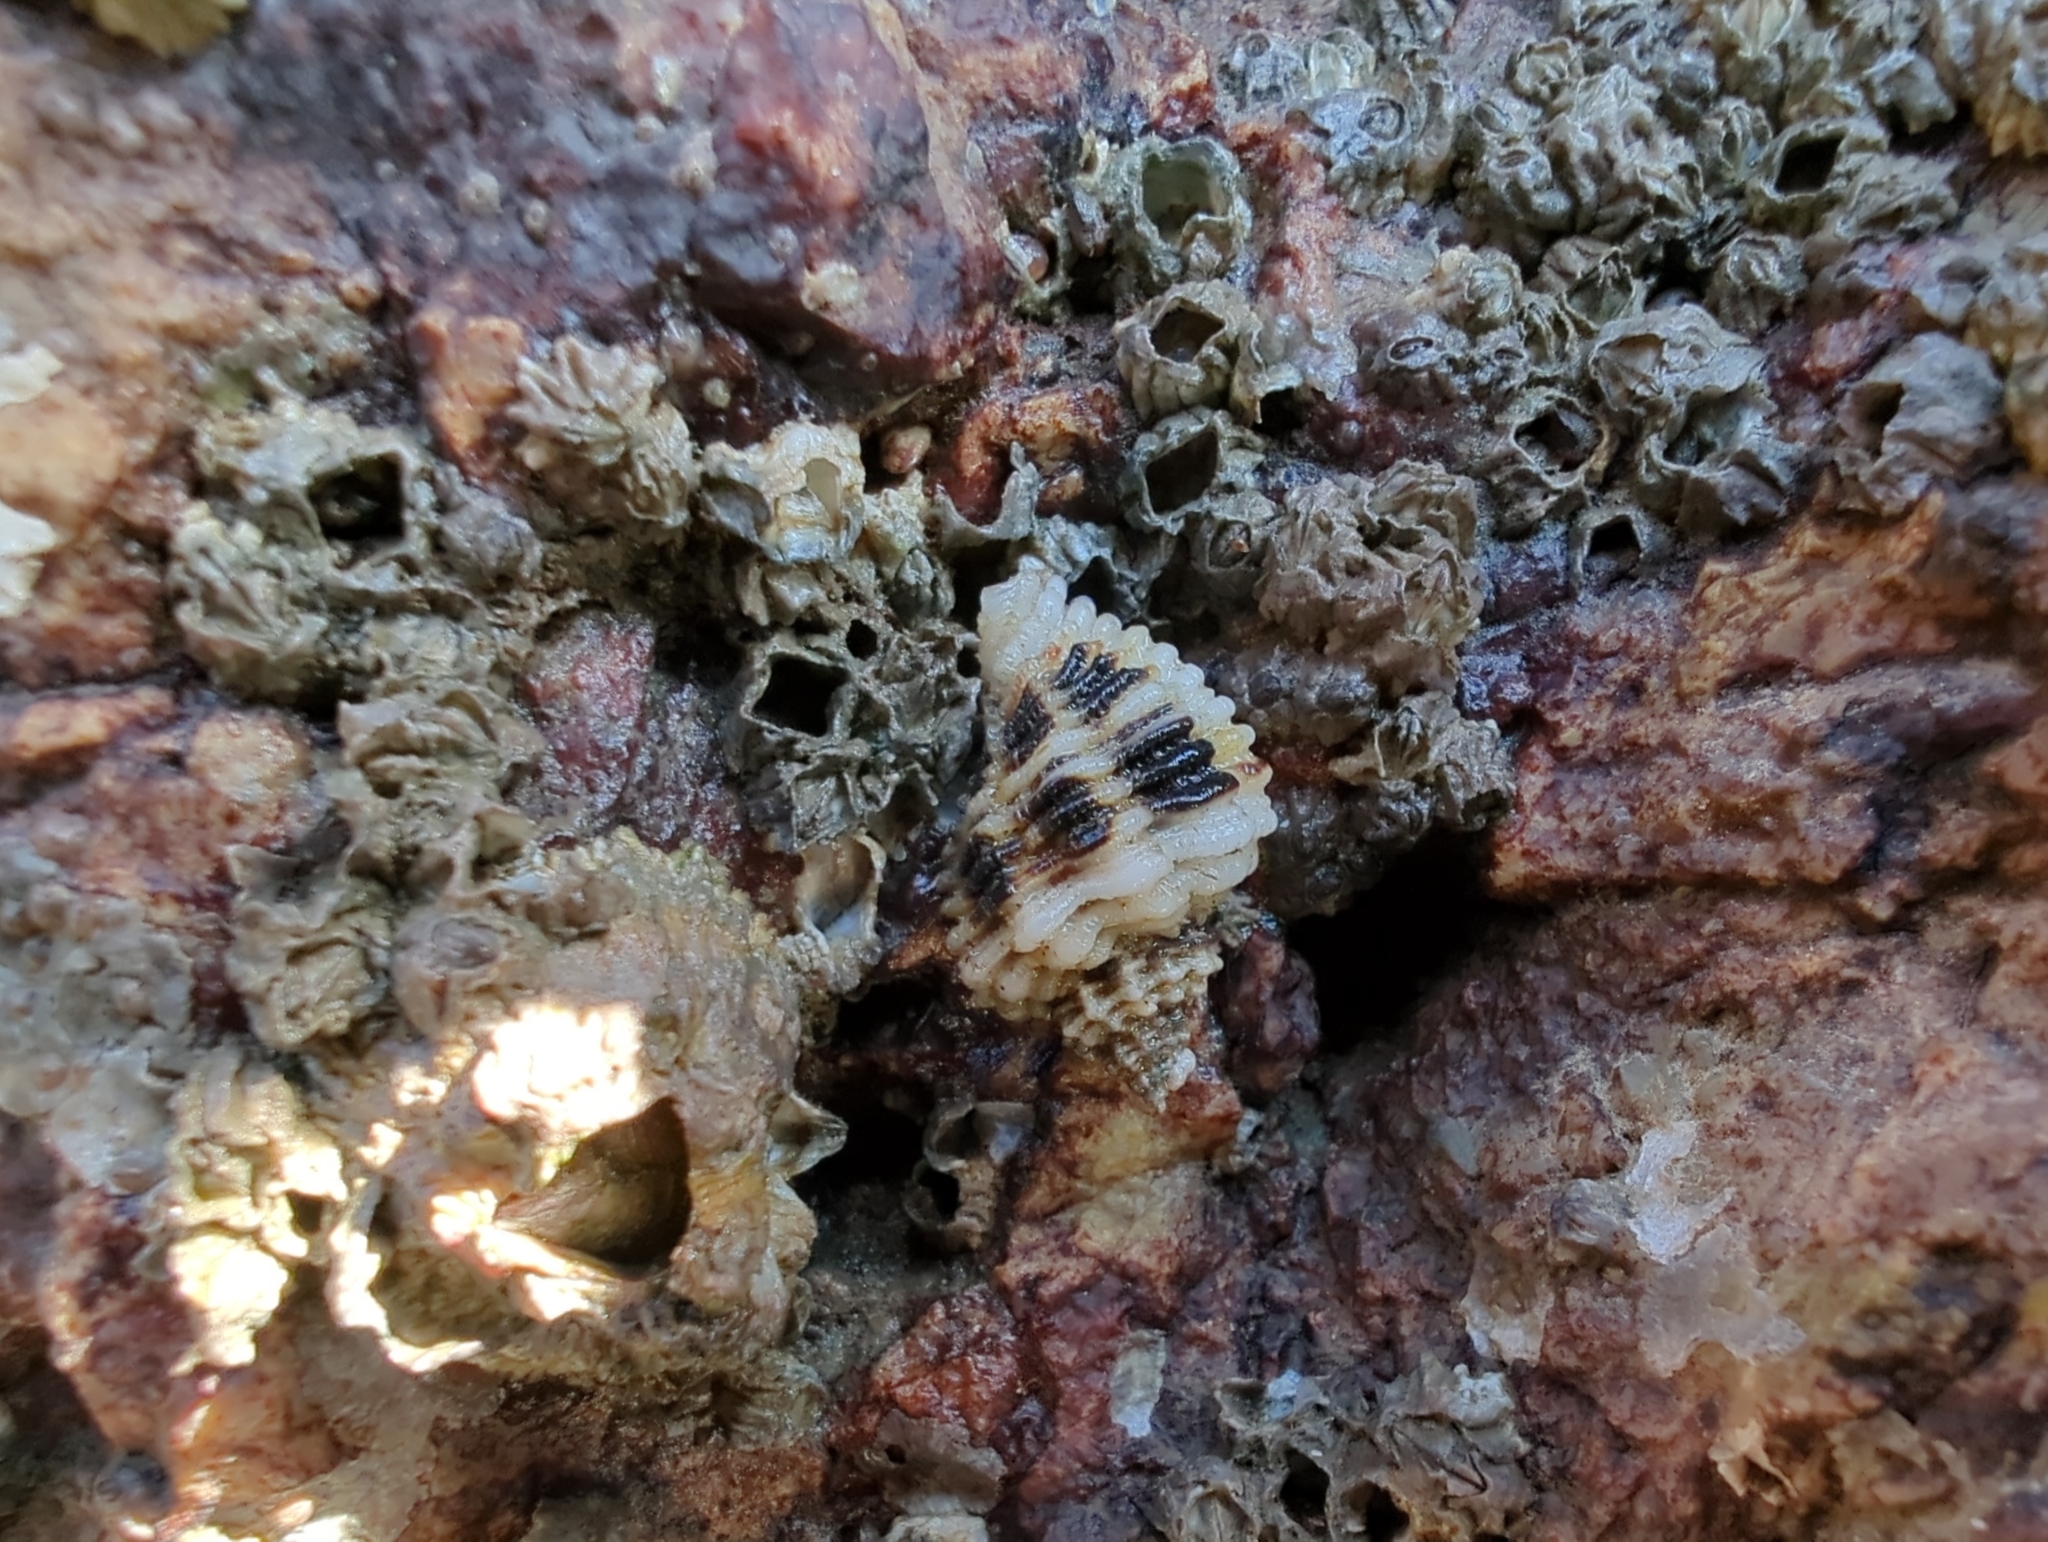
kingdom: Animalia
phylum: Mollusca
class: Gastropoda
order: Neogastropoda
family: Muricidae
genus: Paciocinebrina
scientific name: Paciocinebrina circumtexta
